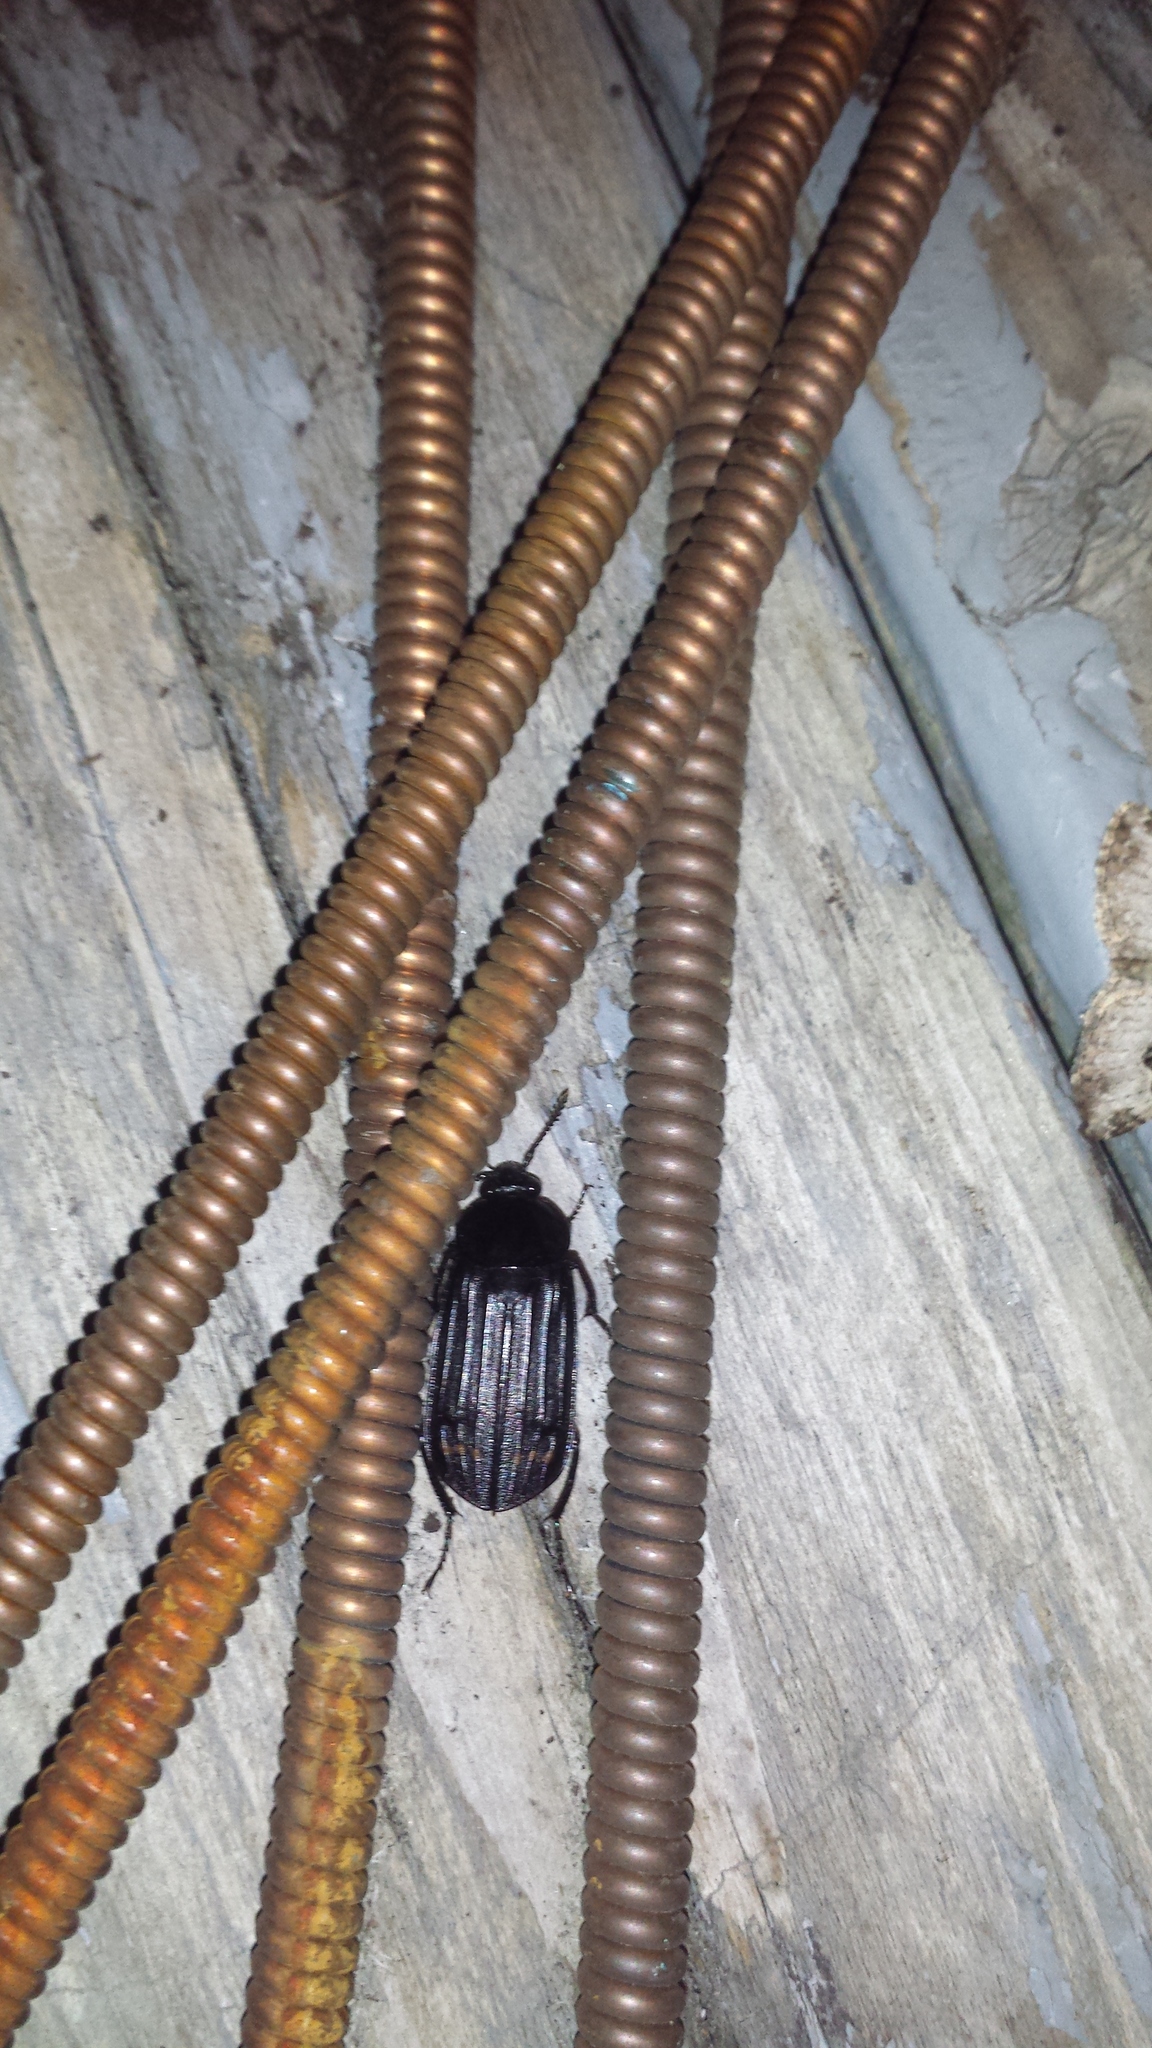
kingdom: Animalia
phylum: Arthropoda
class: Insecta
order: Coleoptera
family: Staphylinidae
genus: Necrodes
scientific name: Necrodes surinamensis
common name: Red-lined carrion beetle
